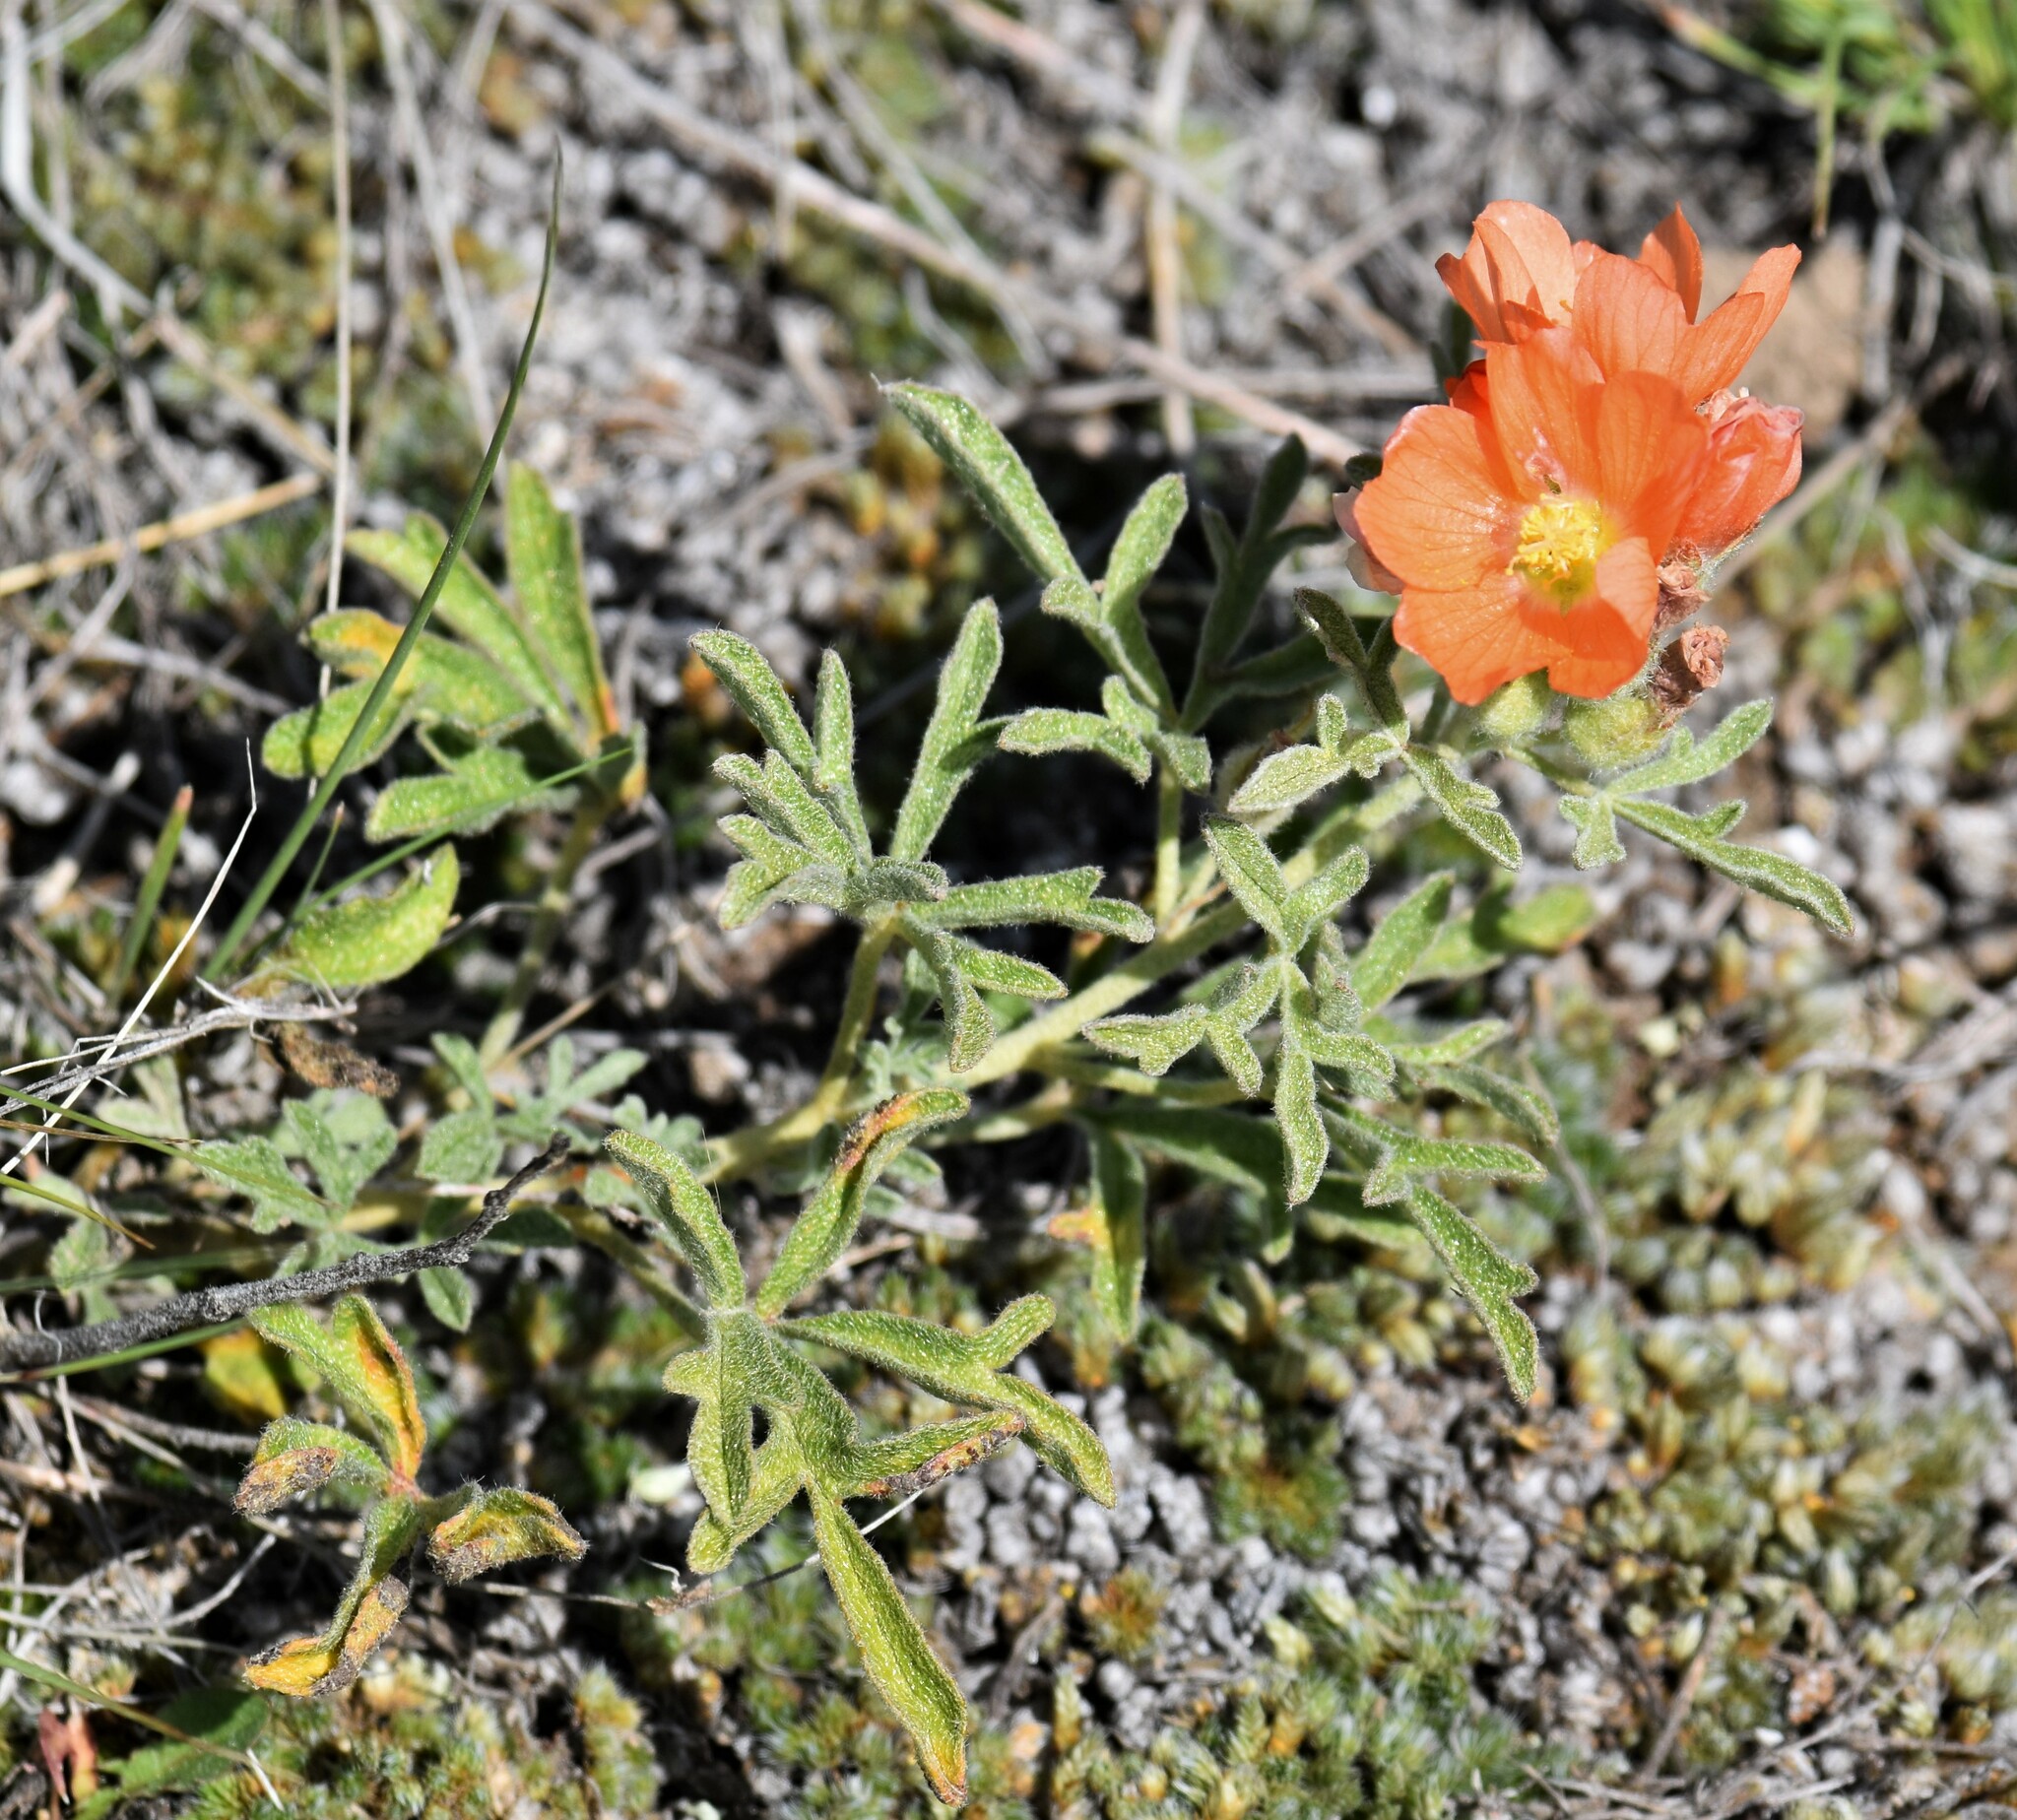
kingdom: Plantae
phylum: Tracheophyta
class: Magnoliopsida
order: Malvales
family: Malvaceae
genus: Sphaeralcea
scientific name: Sphaeralcea coccinea
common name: Moss-rose
